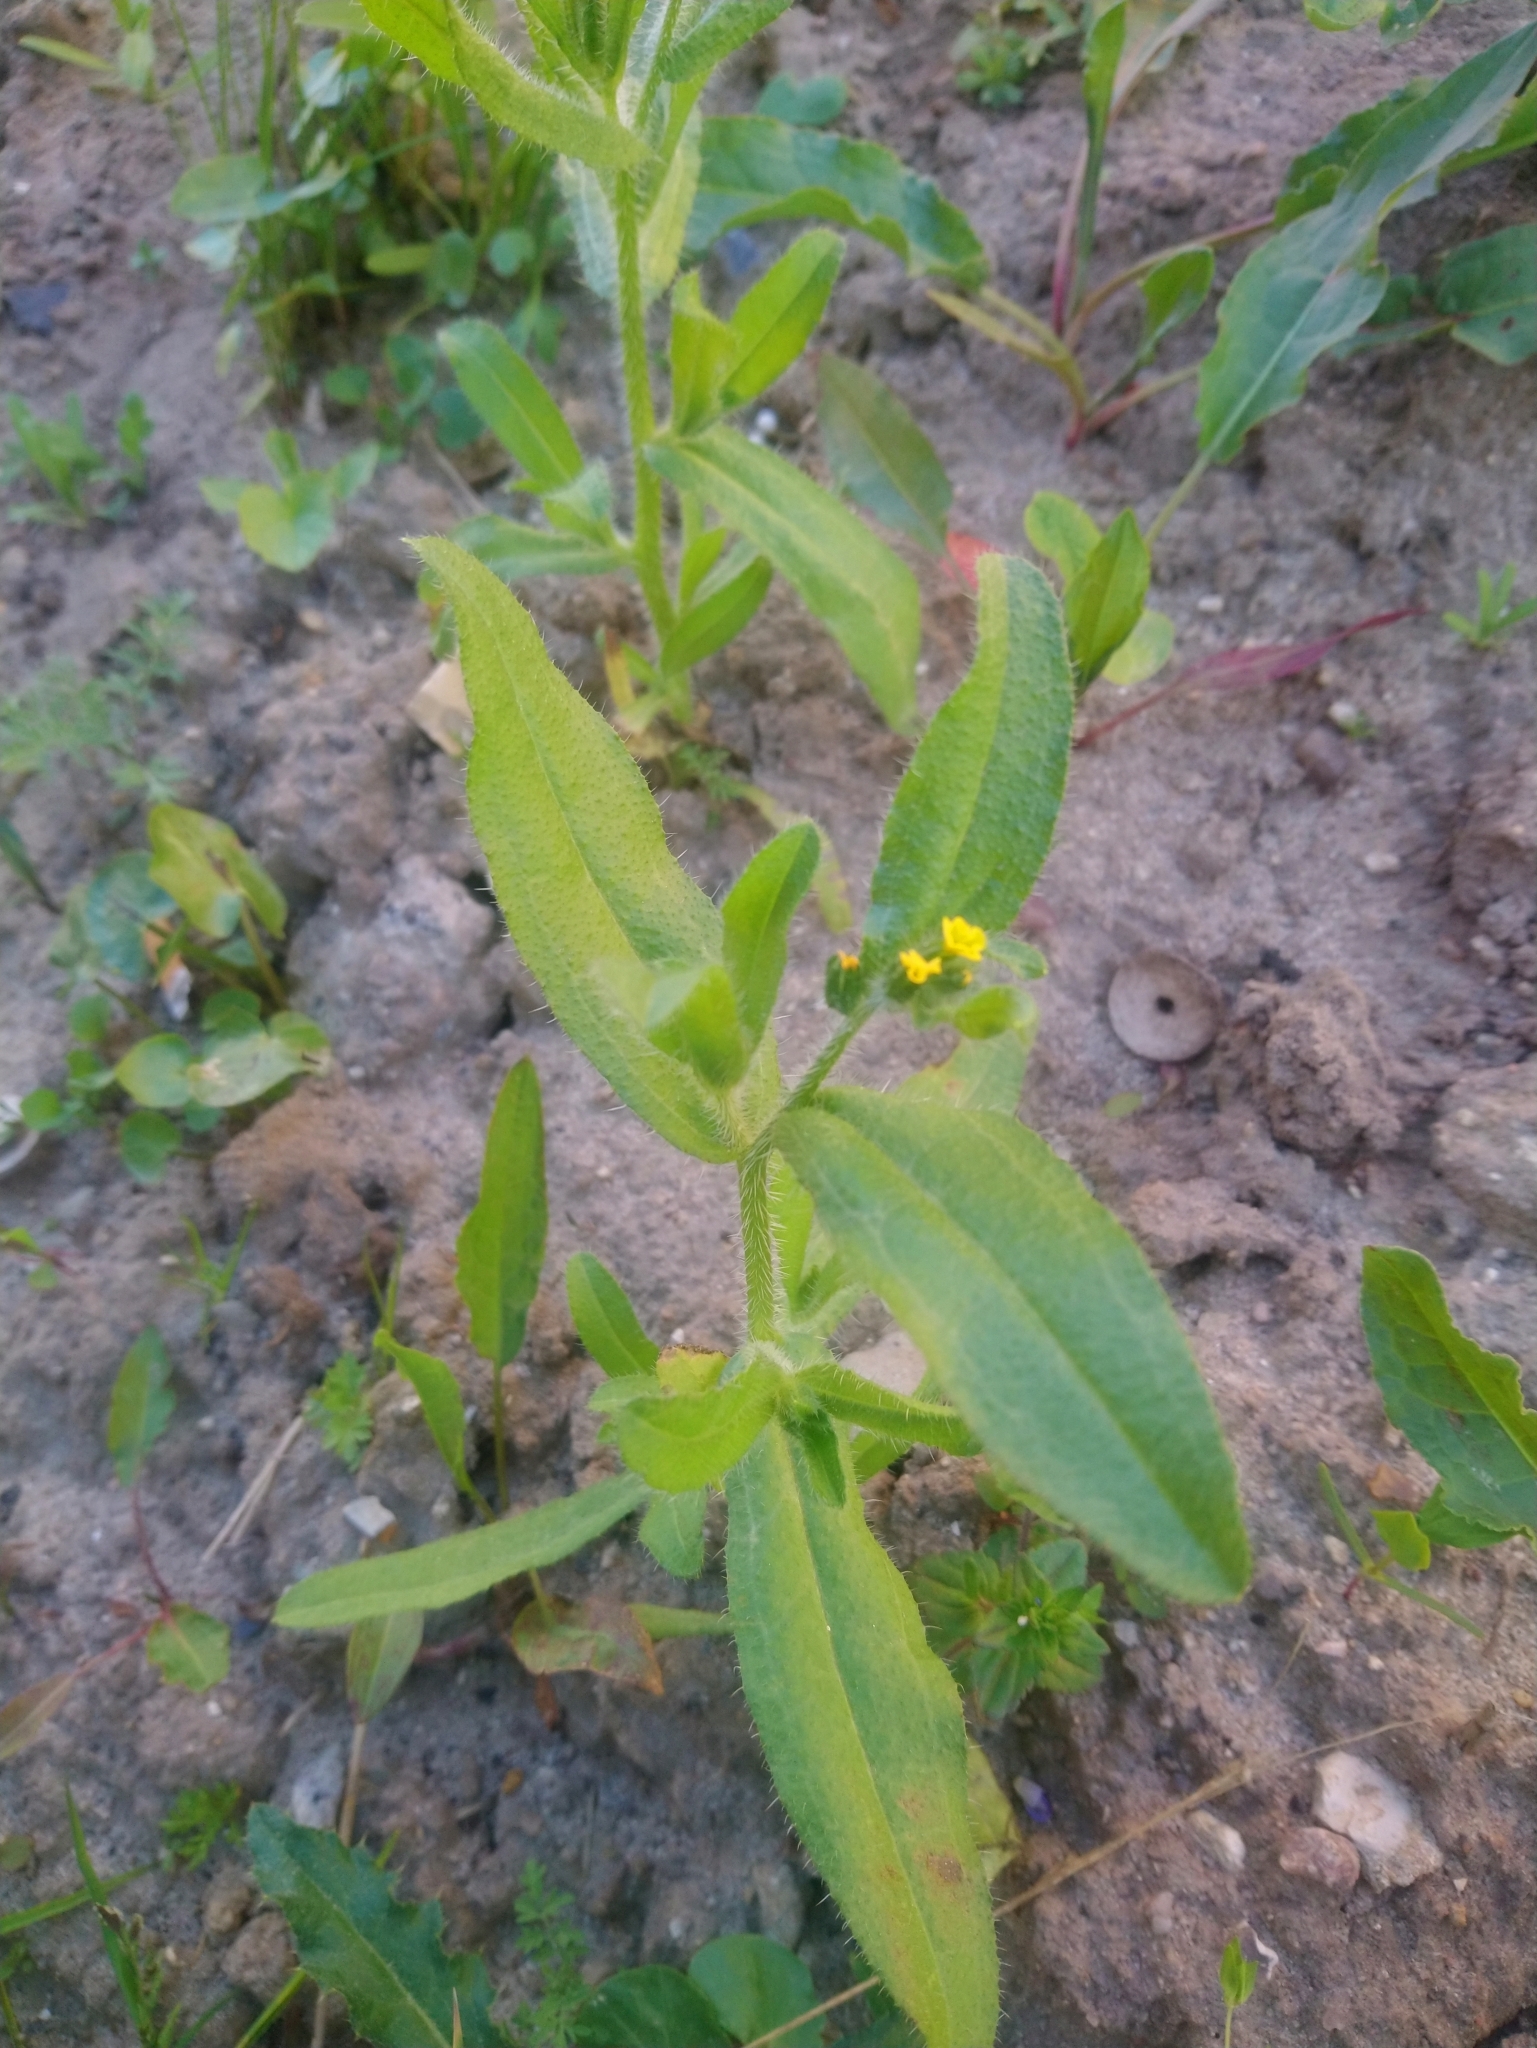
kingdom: Plantae
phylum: Tracheophyta
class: Magnoliopsida
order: Boraginales
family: Boraginaceae
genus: Amsinckia
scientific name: Amsinckia menziesii
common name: Menzies' fiddleneck
